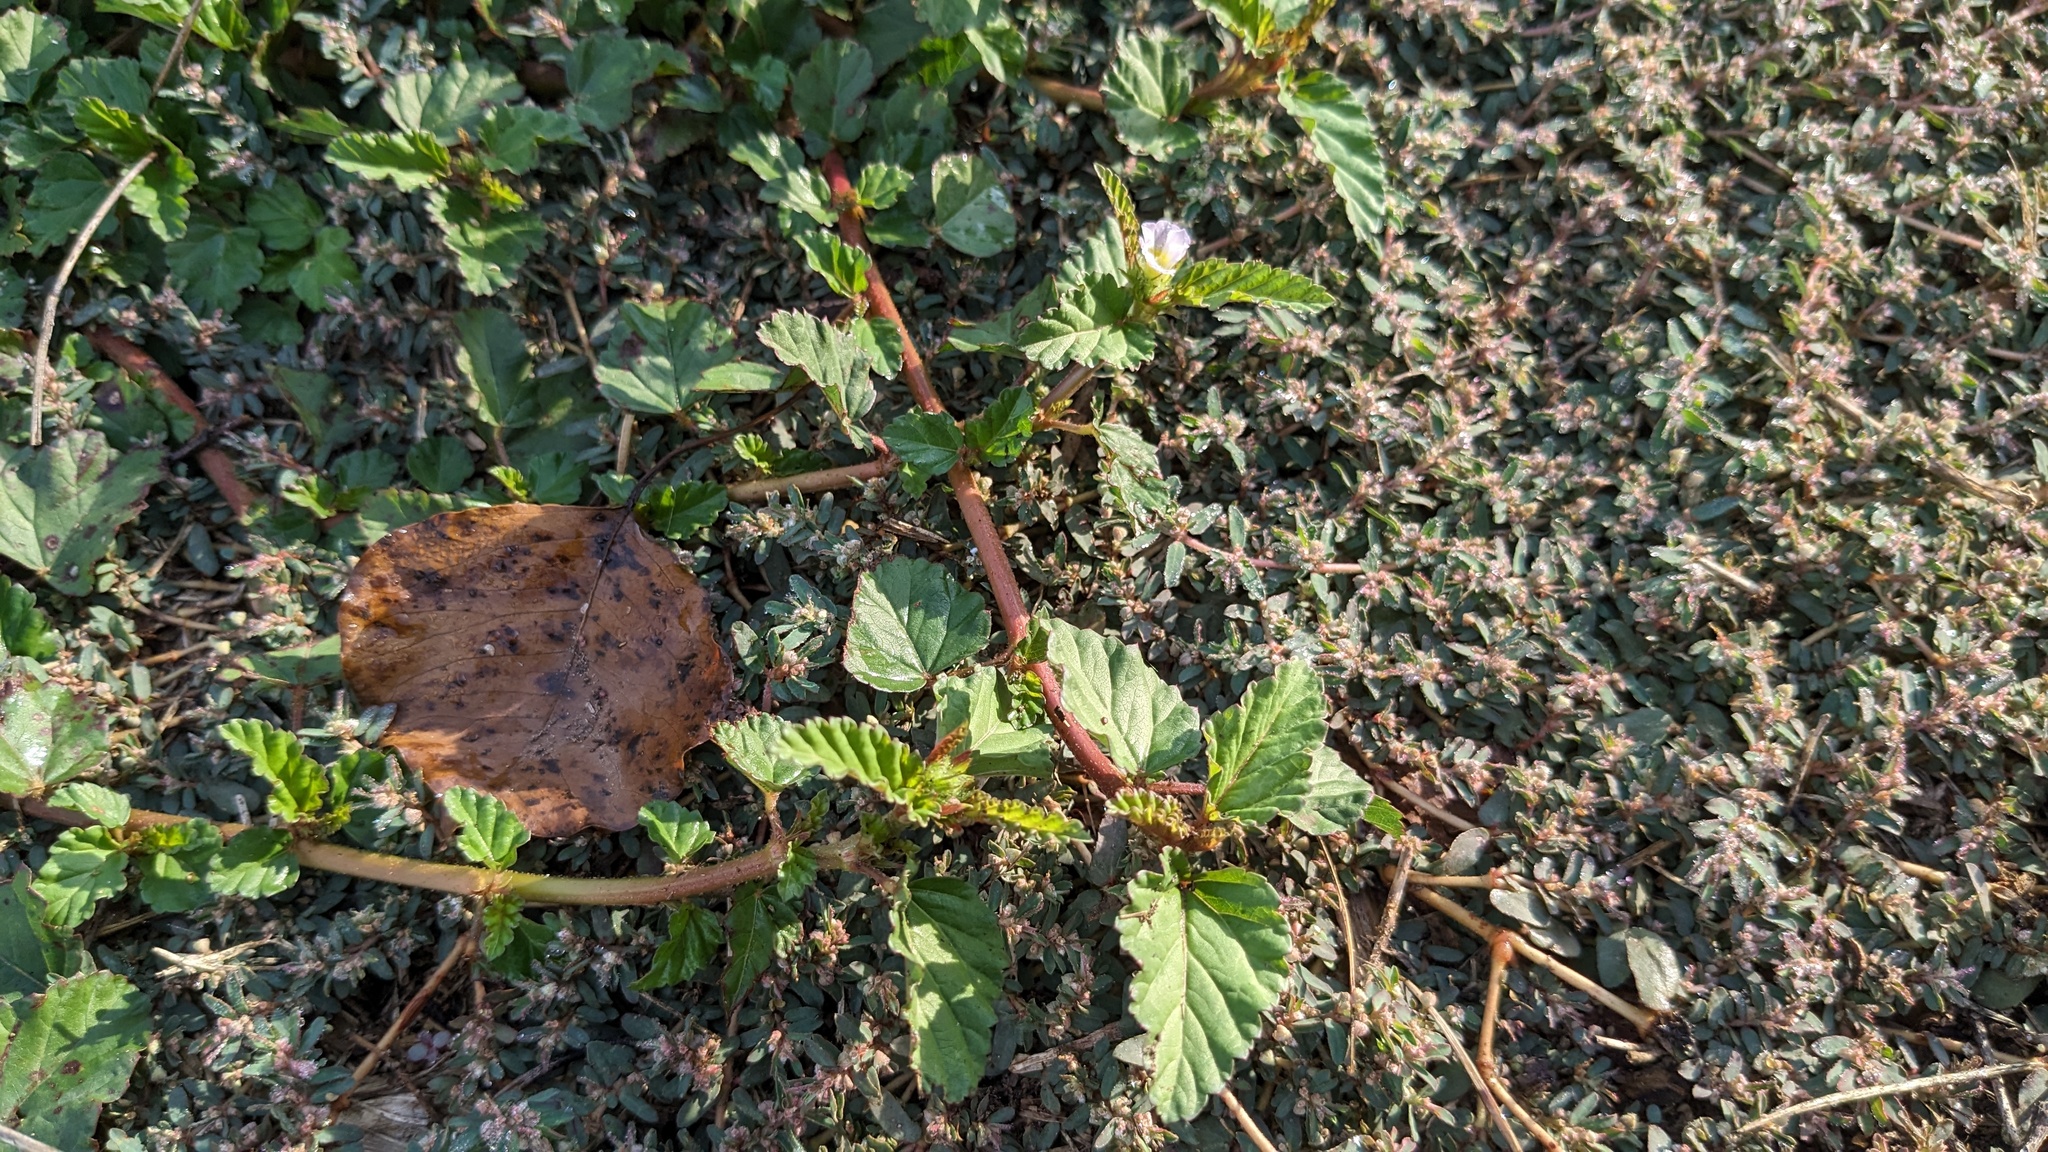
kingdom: Plantae
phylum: Tracheophyta
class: Magnoliopsida
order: Malvales
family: Malvaceae
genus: Melochia
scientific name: Melochia corchorifolia
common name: Chocolateweed
